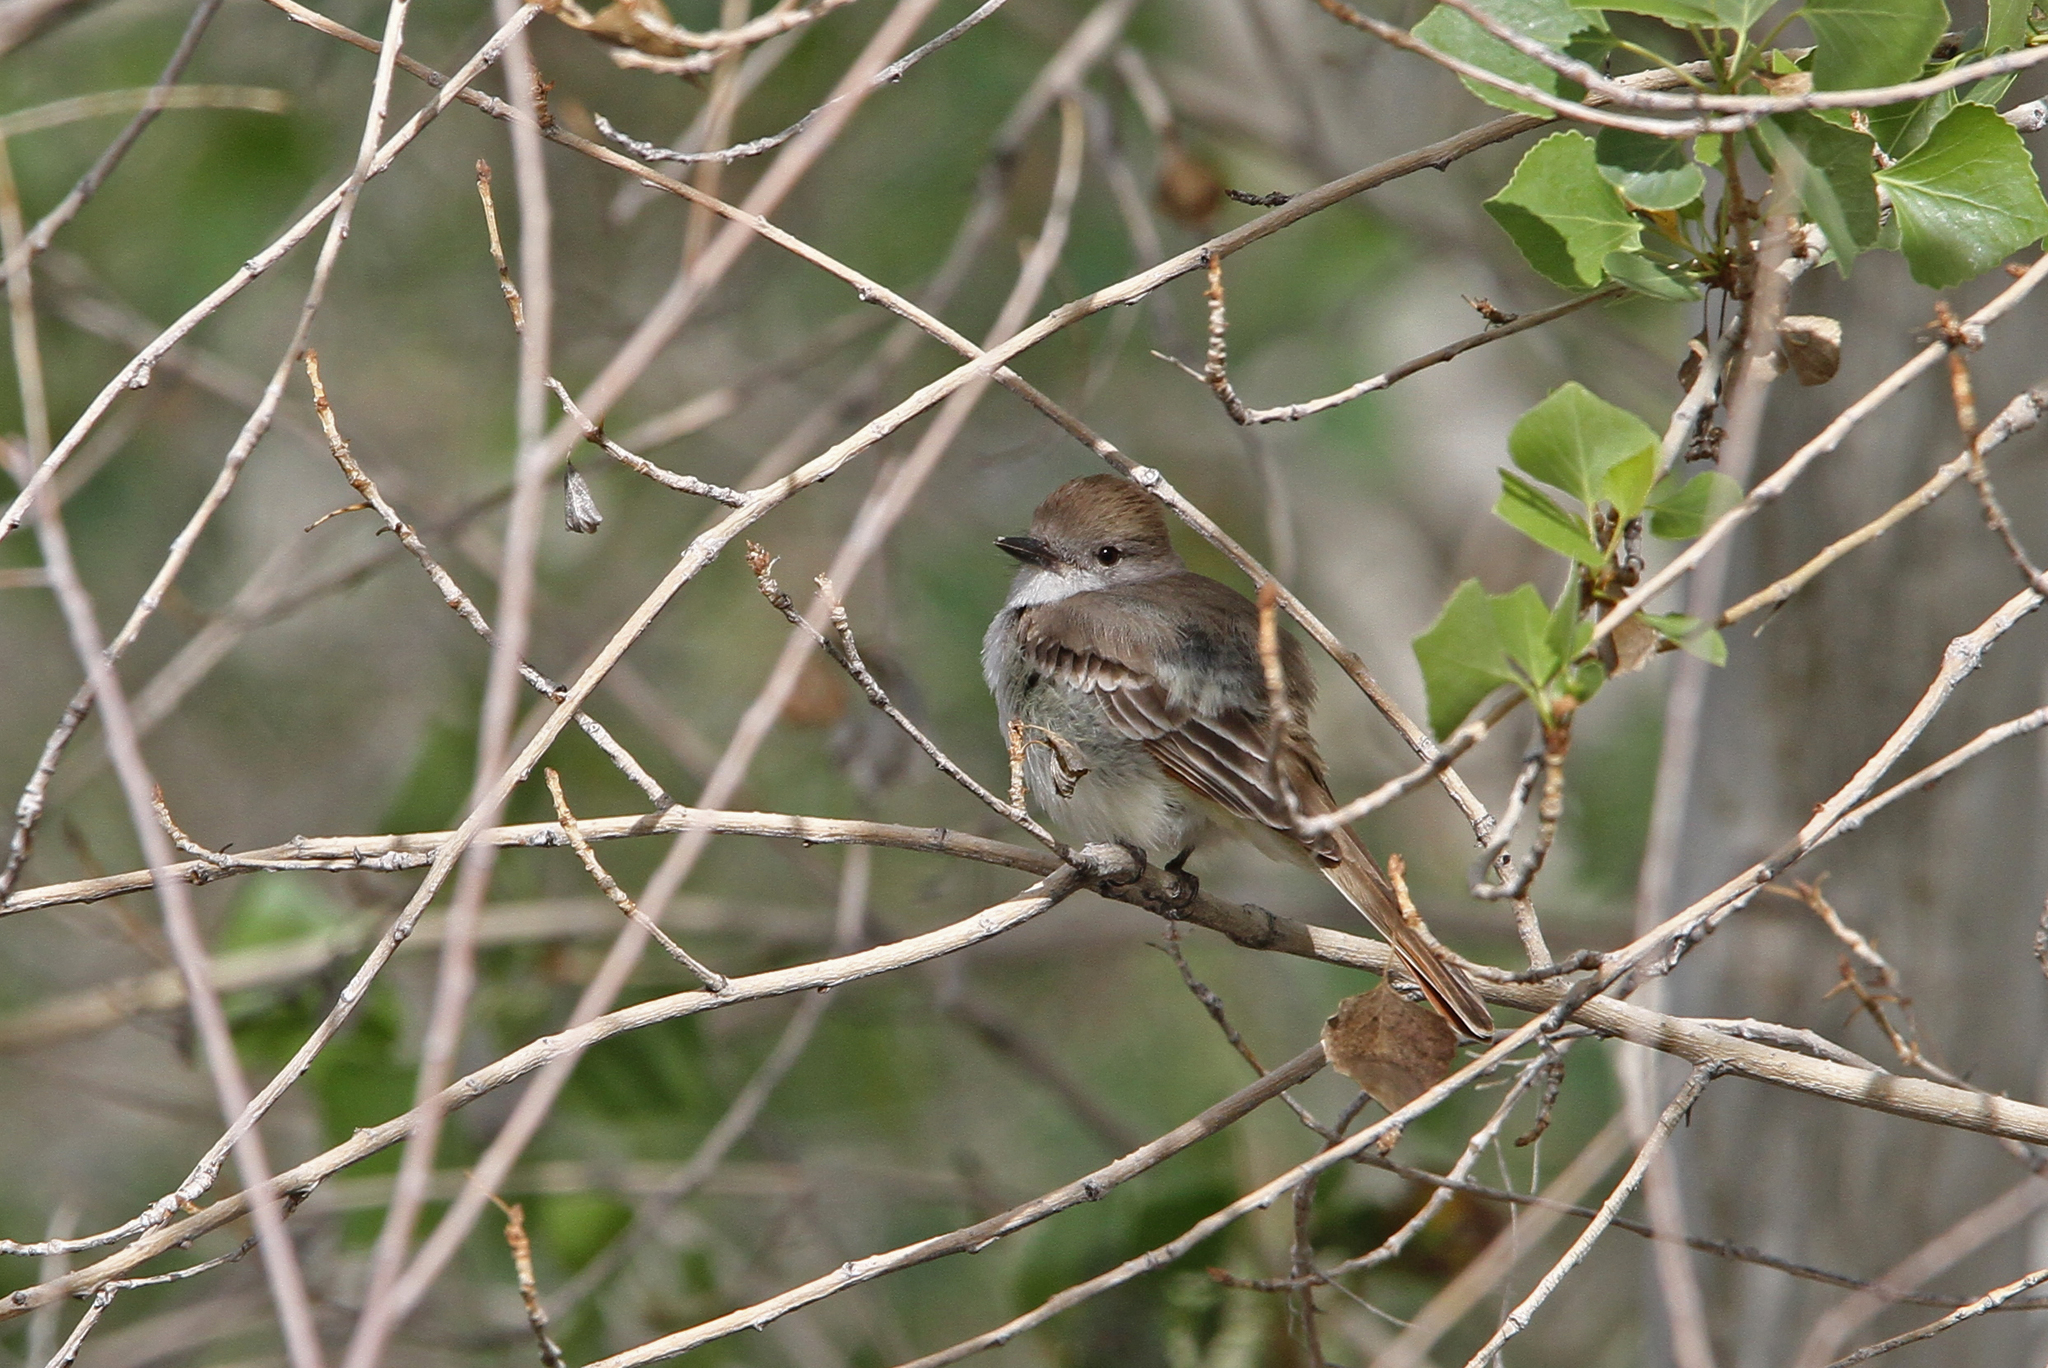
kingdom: Animalia
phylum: Chordata
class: Aves
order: Passeriformes
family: Tyrannidae
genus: Myiarchus
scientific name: Myiarchus cinerascens
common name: Ash-throated flycatcher
